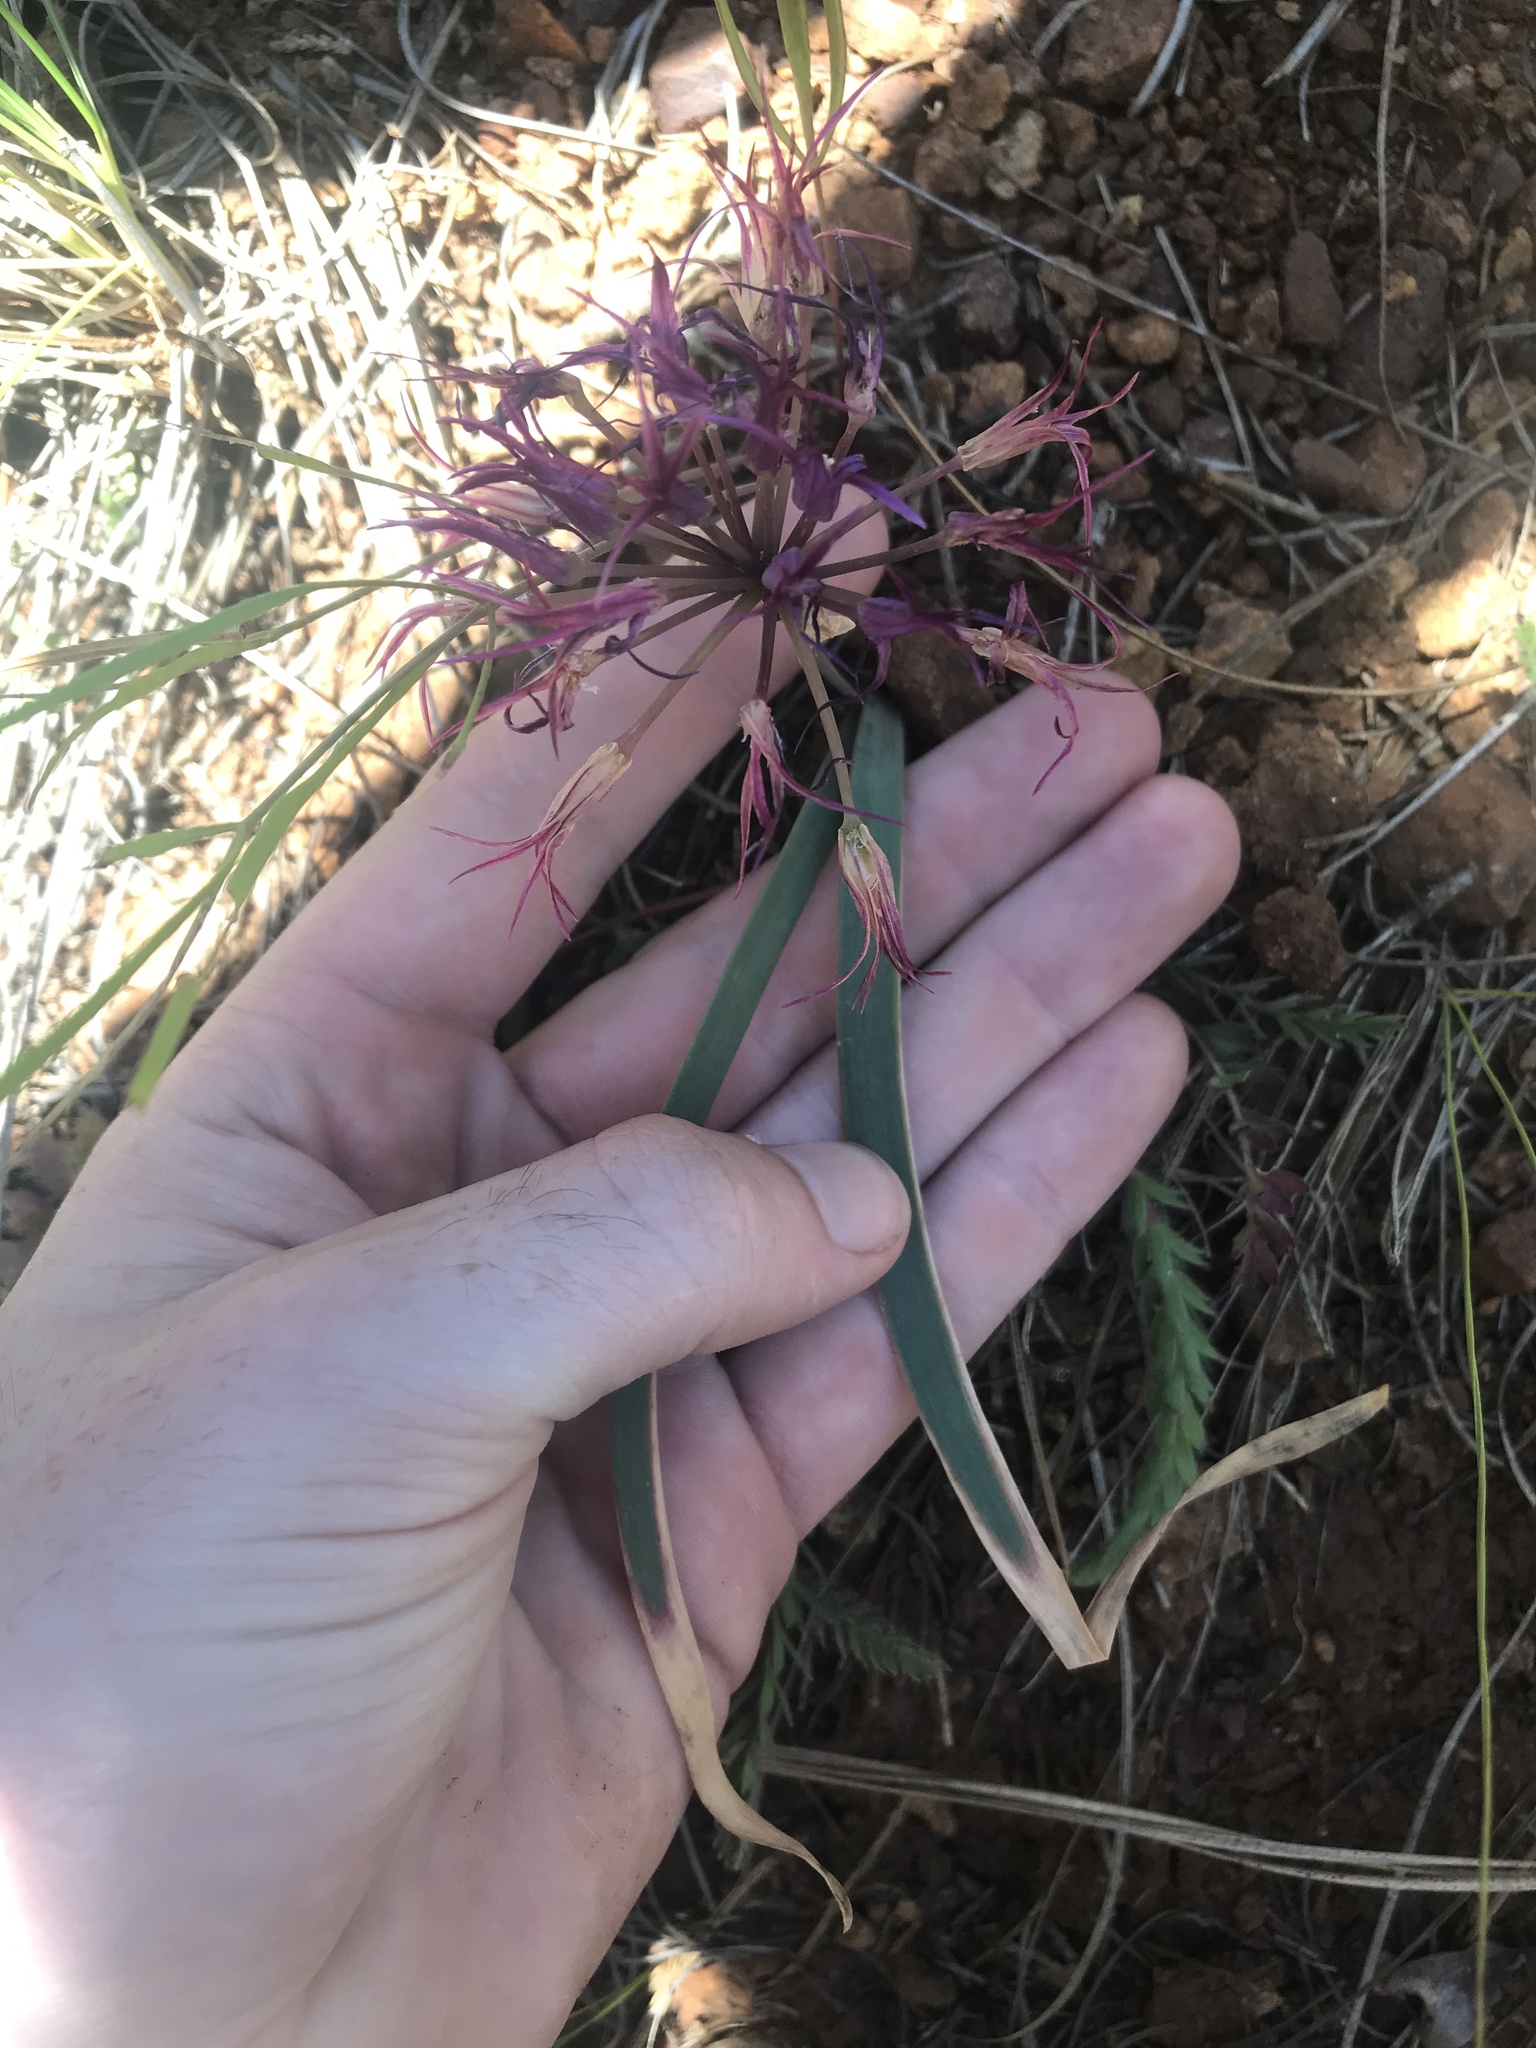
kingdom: Plantae
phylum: Tracheophyta
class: Liliopsida
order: Asparagales
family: Amaryllidaceae
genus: Allium
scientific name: Allium falcifolium
